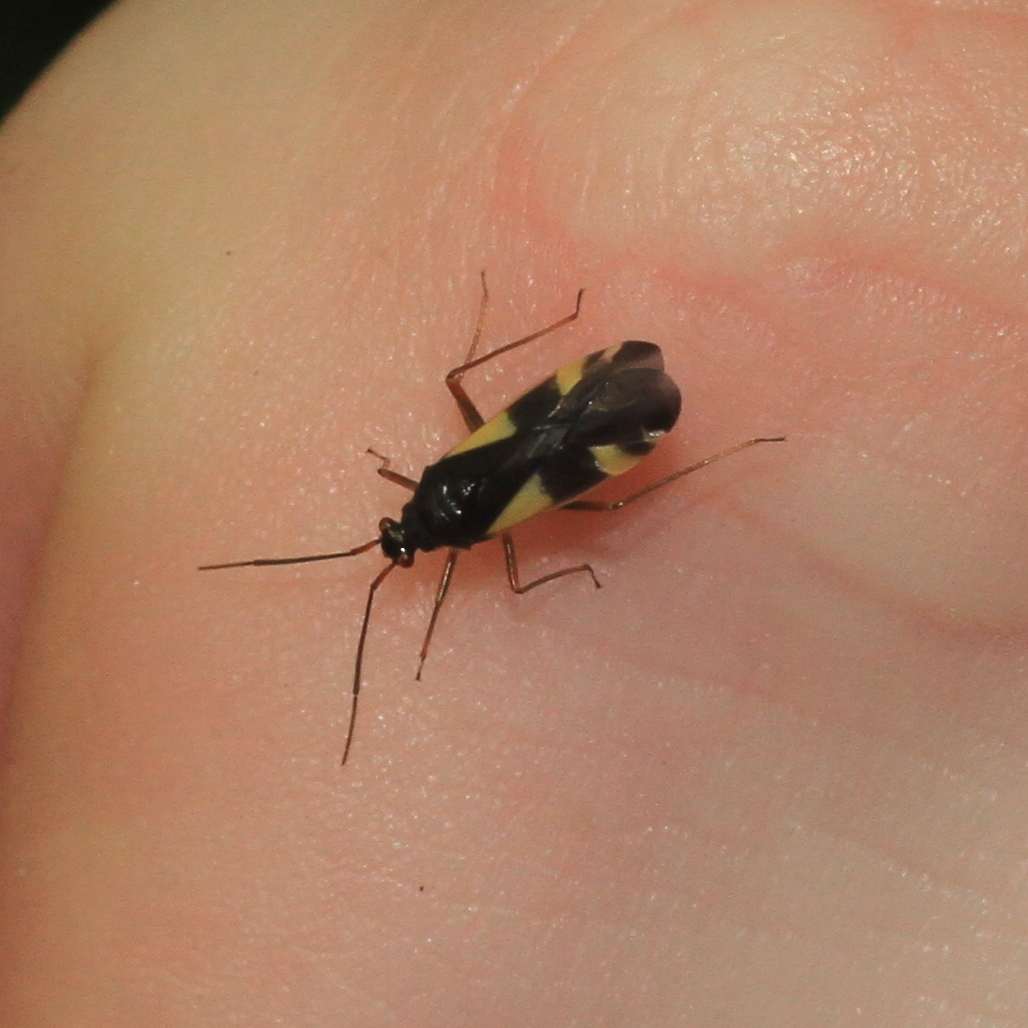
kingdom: Animalia
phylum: Arthropoda
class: Insecta
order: Hemiptera
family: Miridae
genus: Dryophilocoris
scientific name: Dryophilocoris flavoquadrimaculatus
